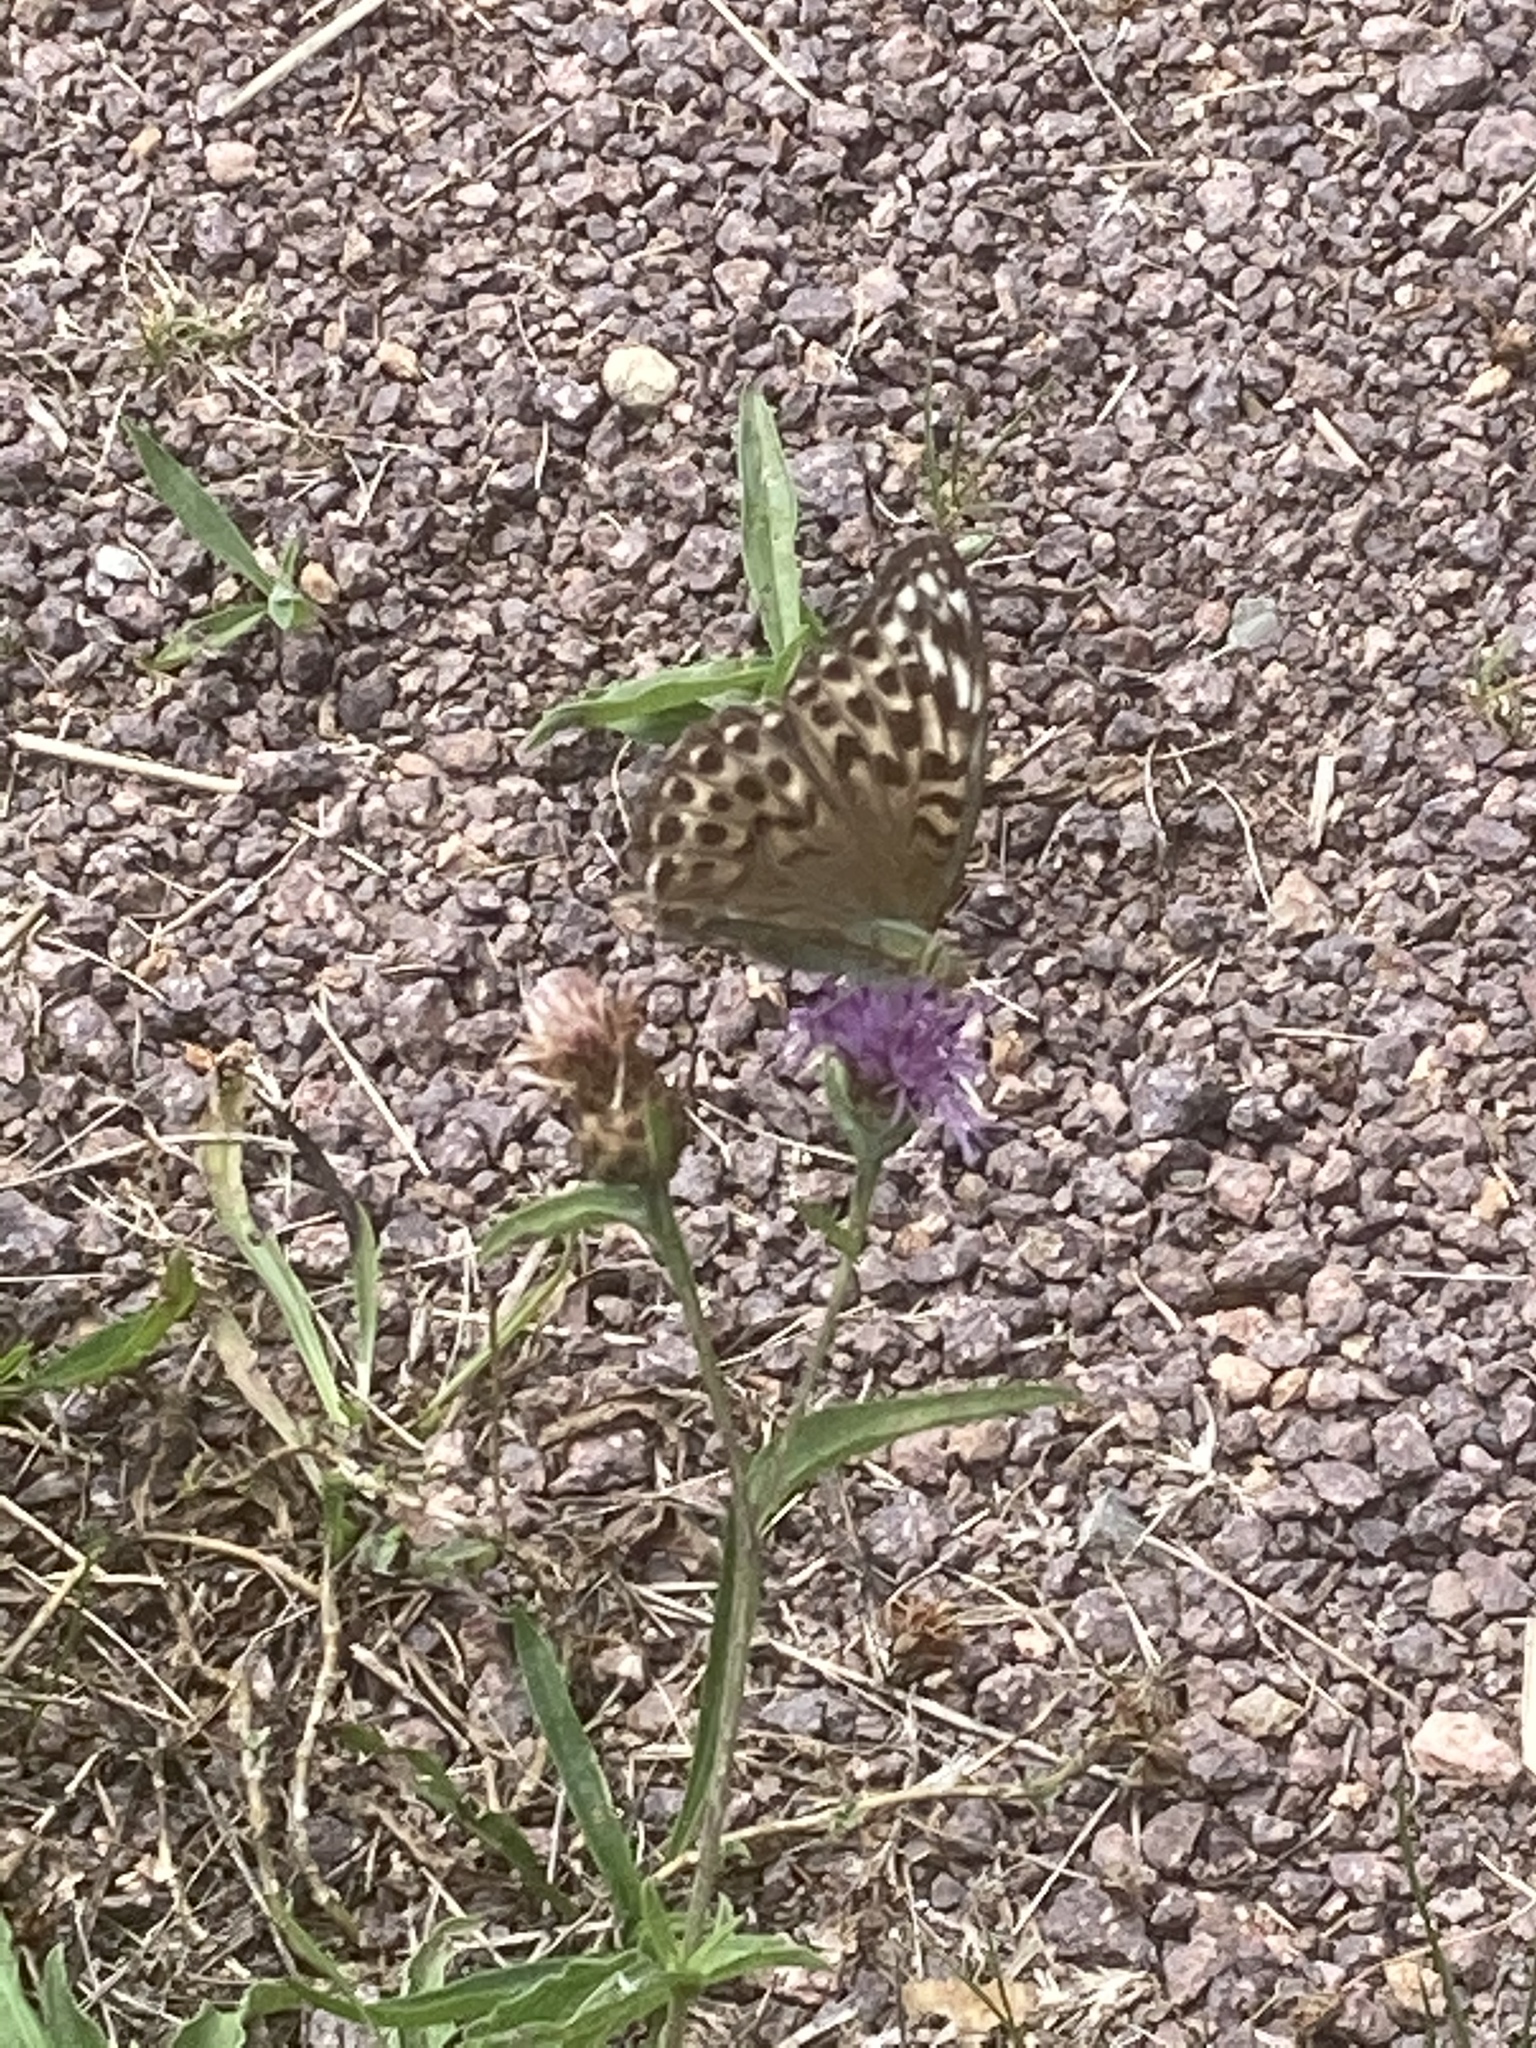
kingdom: Animalia
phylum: Arthropoda
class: Insecta
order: Lepidoptera
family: Nymphalidae
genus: Argynnis
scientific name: Argynnis paphia
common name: Silver-washed fritillary
